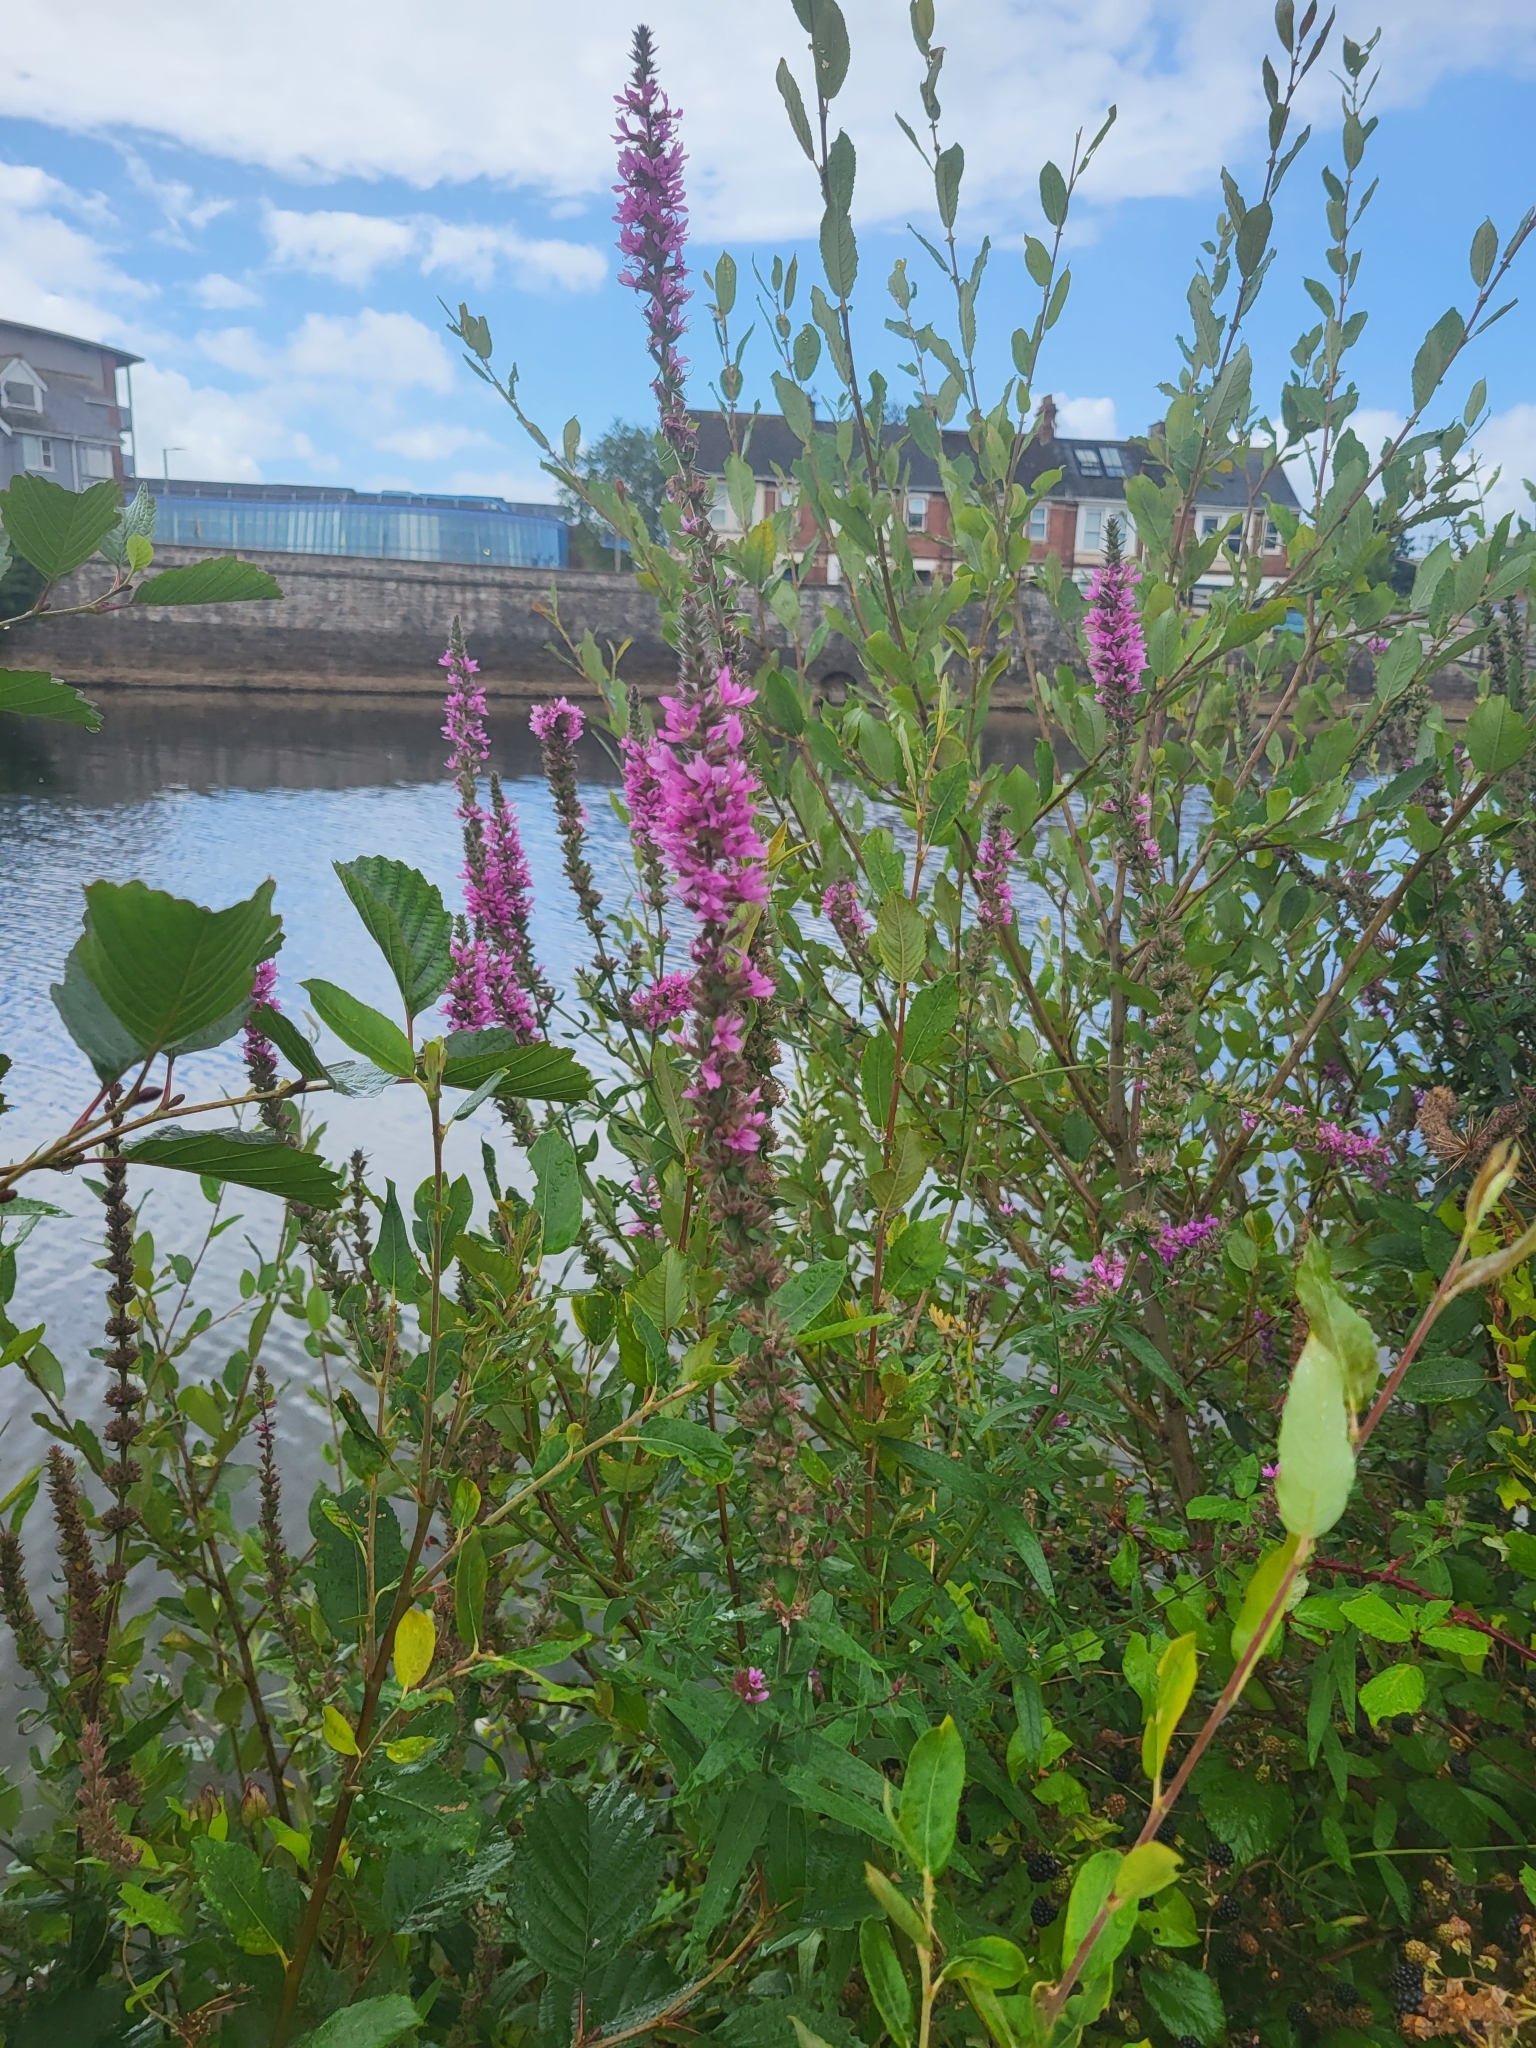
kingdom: Plantae
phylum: Tracheophyta
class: Magnoliopsida
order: Myrtales
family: Lythraceae
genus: Lythrum
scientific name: Lythrum salicaria
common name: Purple loosestrife
